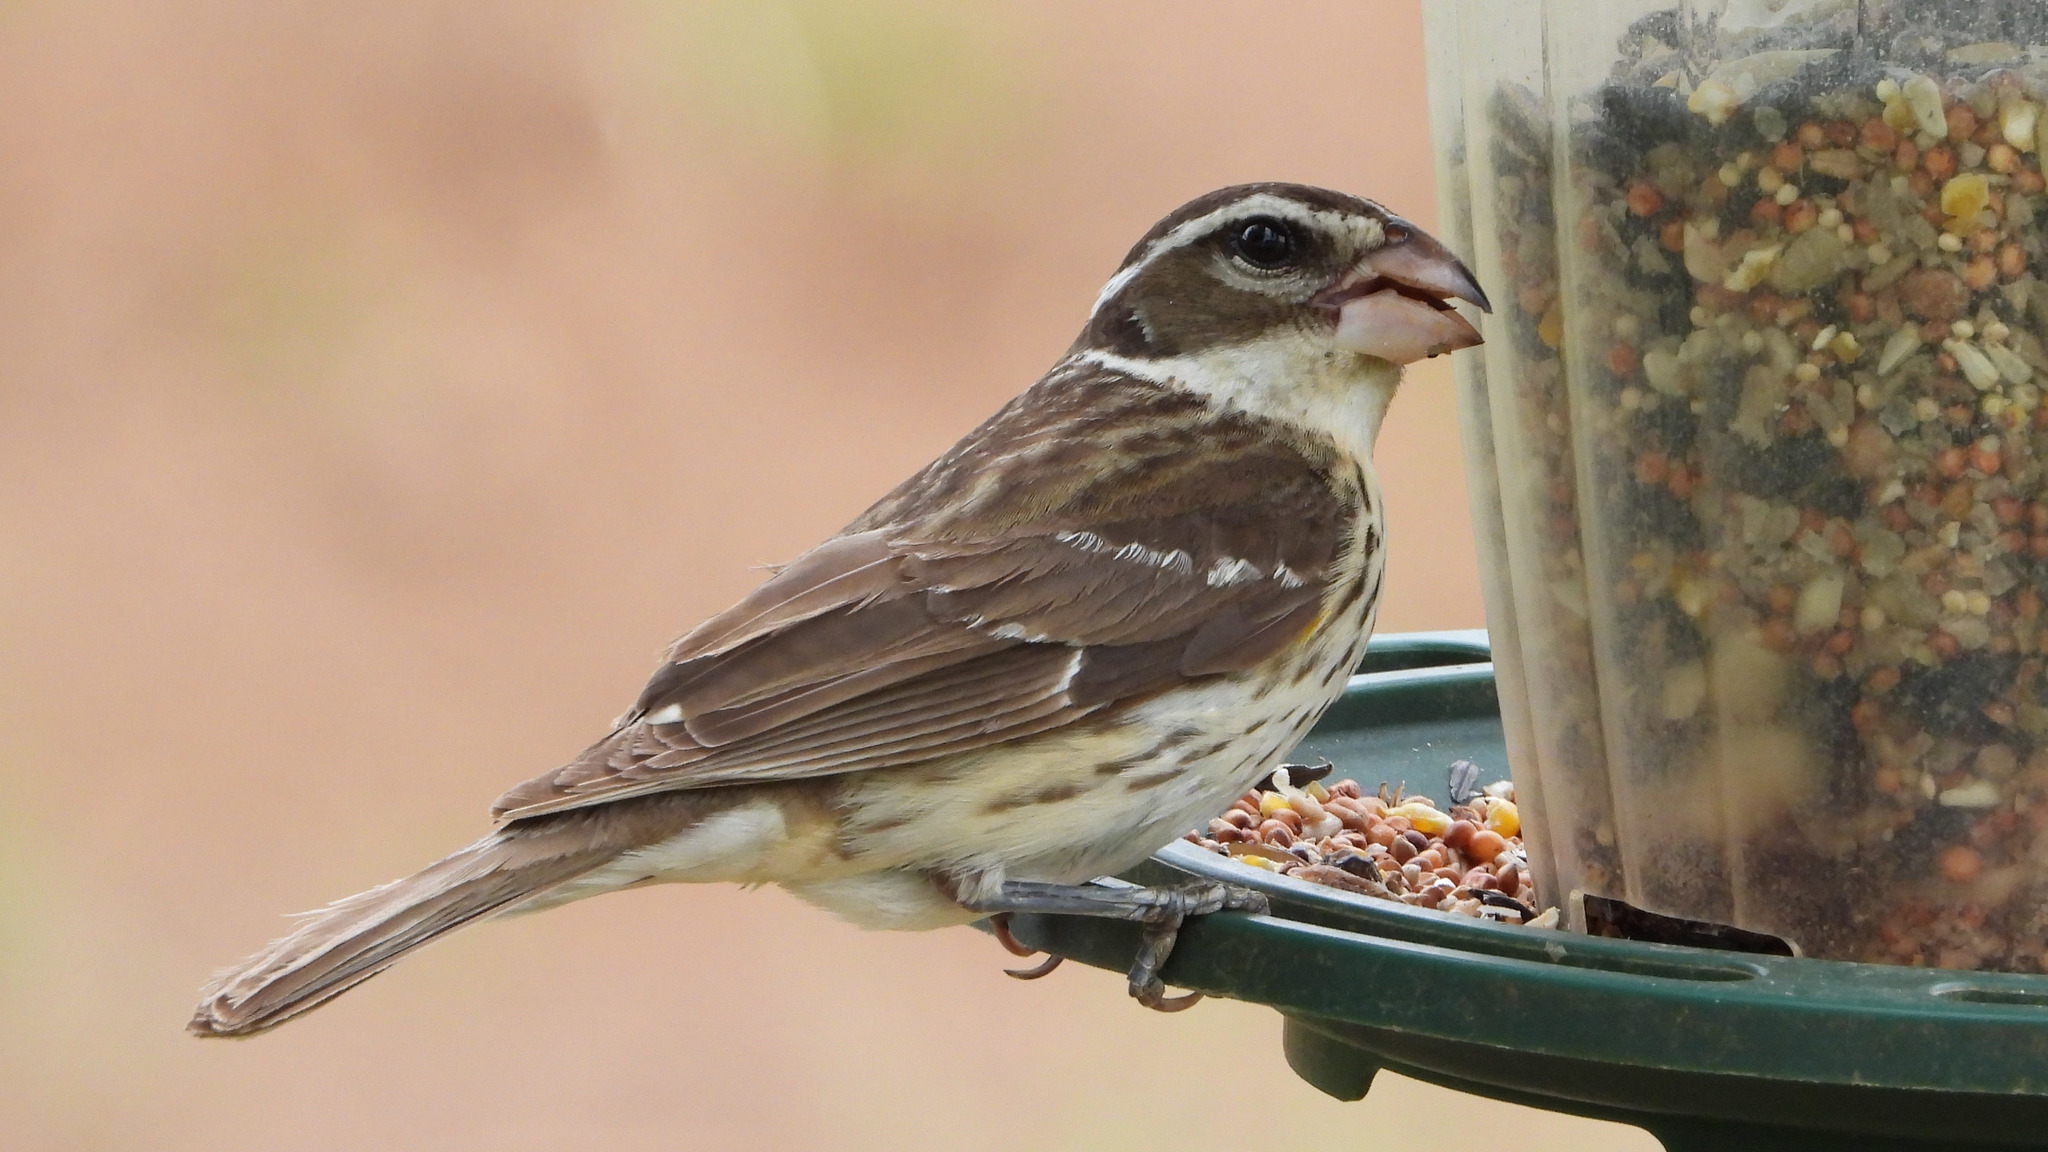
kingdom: Animalia
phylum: Chordata
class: Aves
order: Passeriformes
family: Cardinalidae
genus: Pheucticus
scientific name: Pheucticus ludovicianus
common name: Rose-breasted grosbeak
